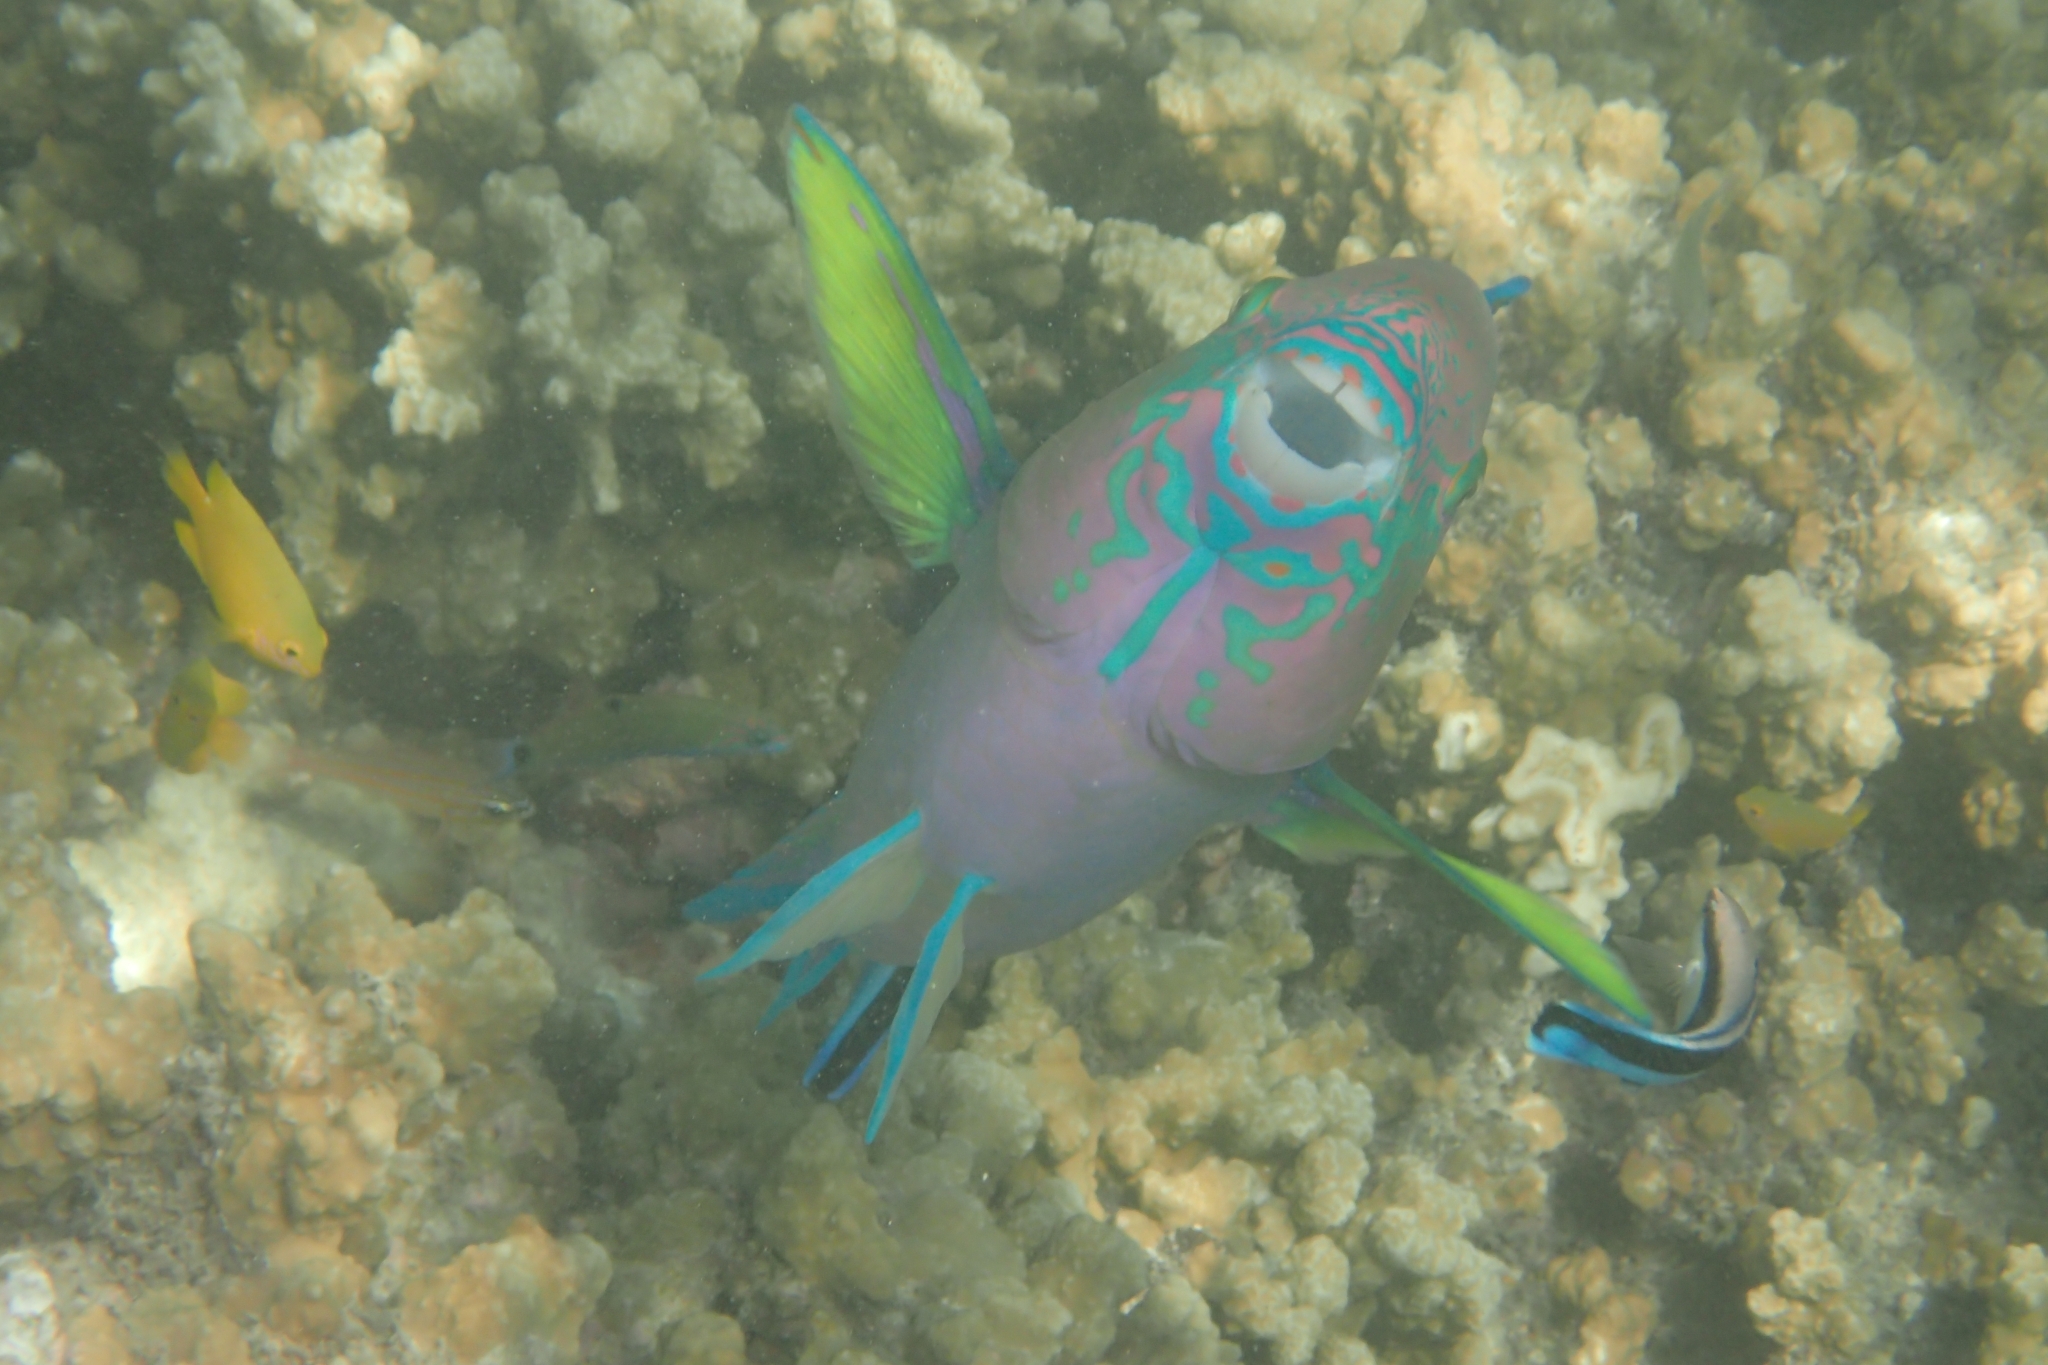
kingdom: Animalia
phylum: Chordata
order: Perciformes
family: Scaridae
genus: Scarus
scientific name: Scarus rivulatus
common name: Surf parrotfish
